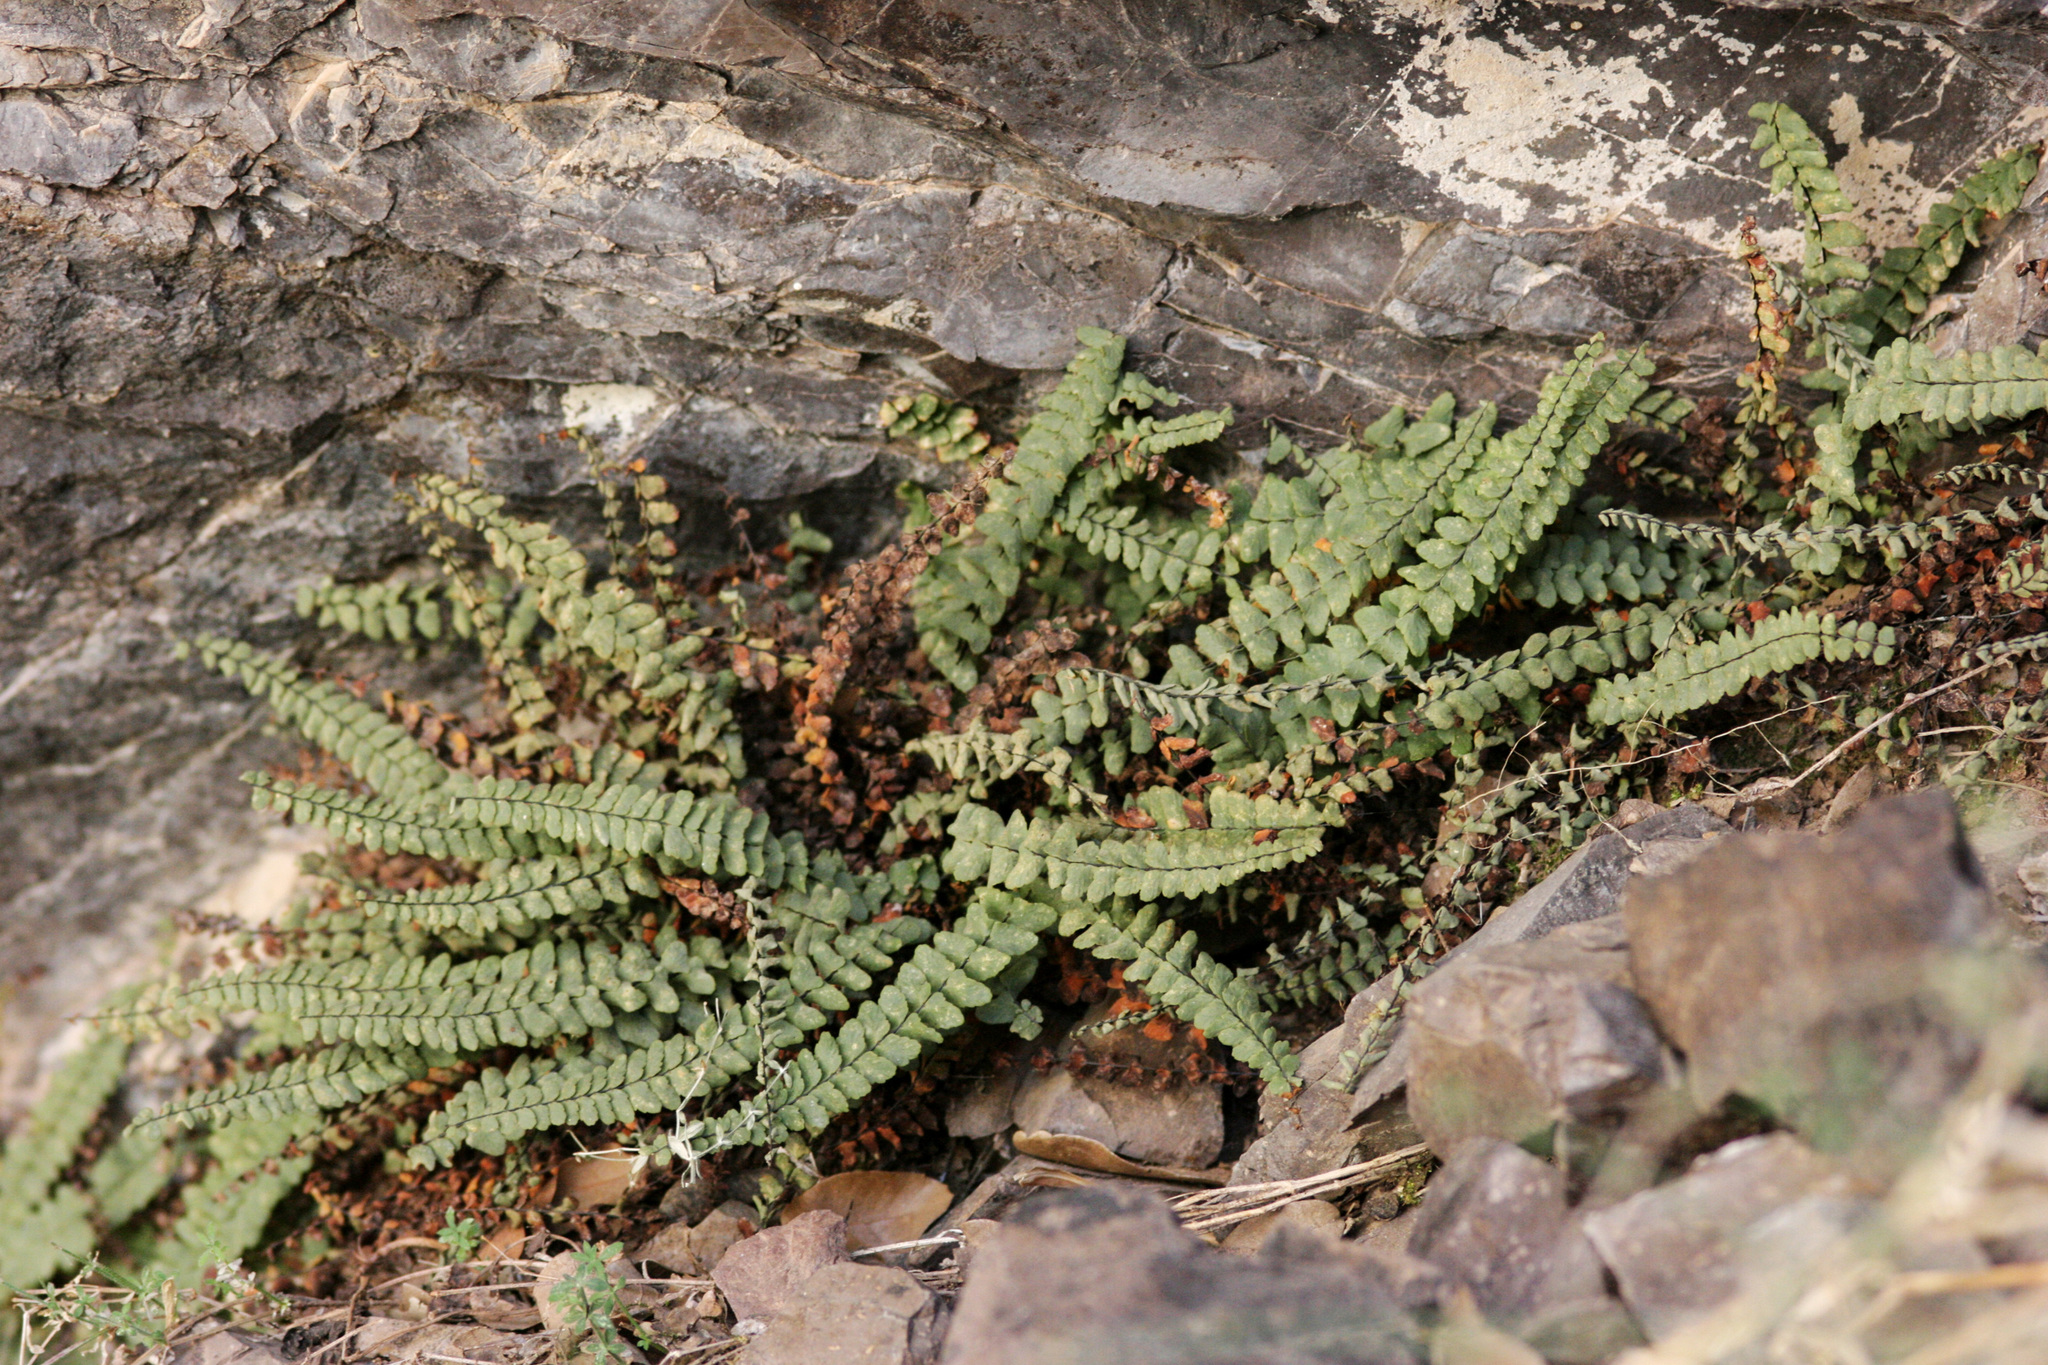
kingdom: Plantae
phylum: Tracheophyta
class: Polypodiopsida
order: Polypodiales
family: Aspleniaceae
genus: Asplenium
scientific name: Asplenium resiliens
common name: Blackstem spleenwort
